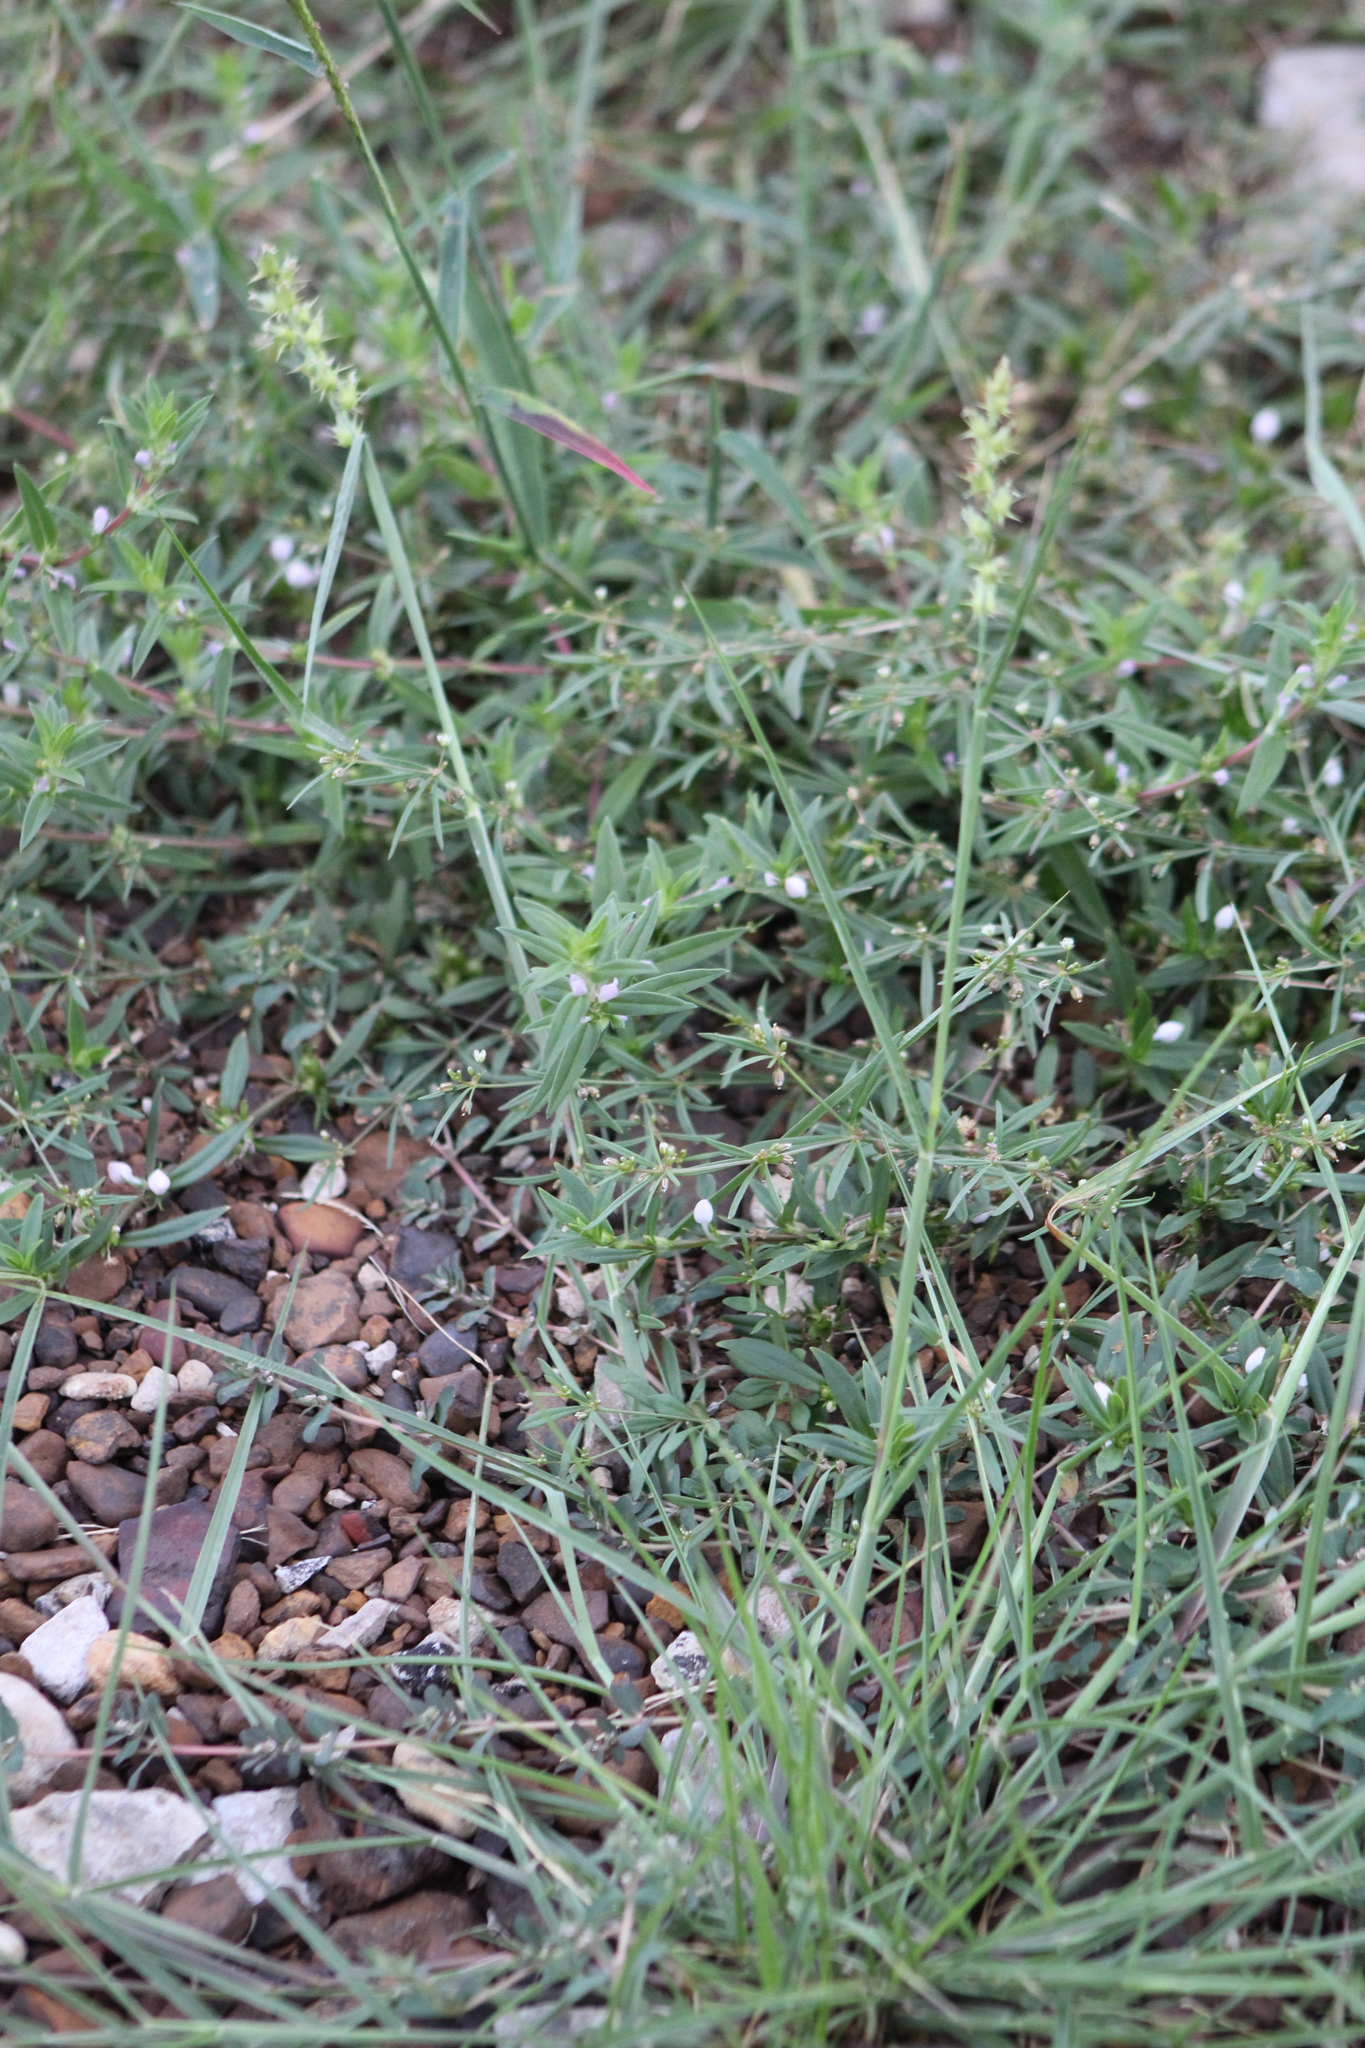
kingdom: Plantae
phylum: Tracheophyta
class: Liliopsida
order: Poales
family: Poaceae
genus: Cenchrus
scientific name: Cenchrus spinifex
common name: Coast sandbur
